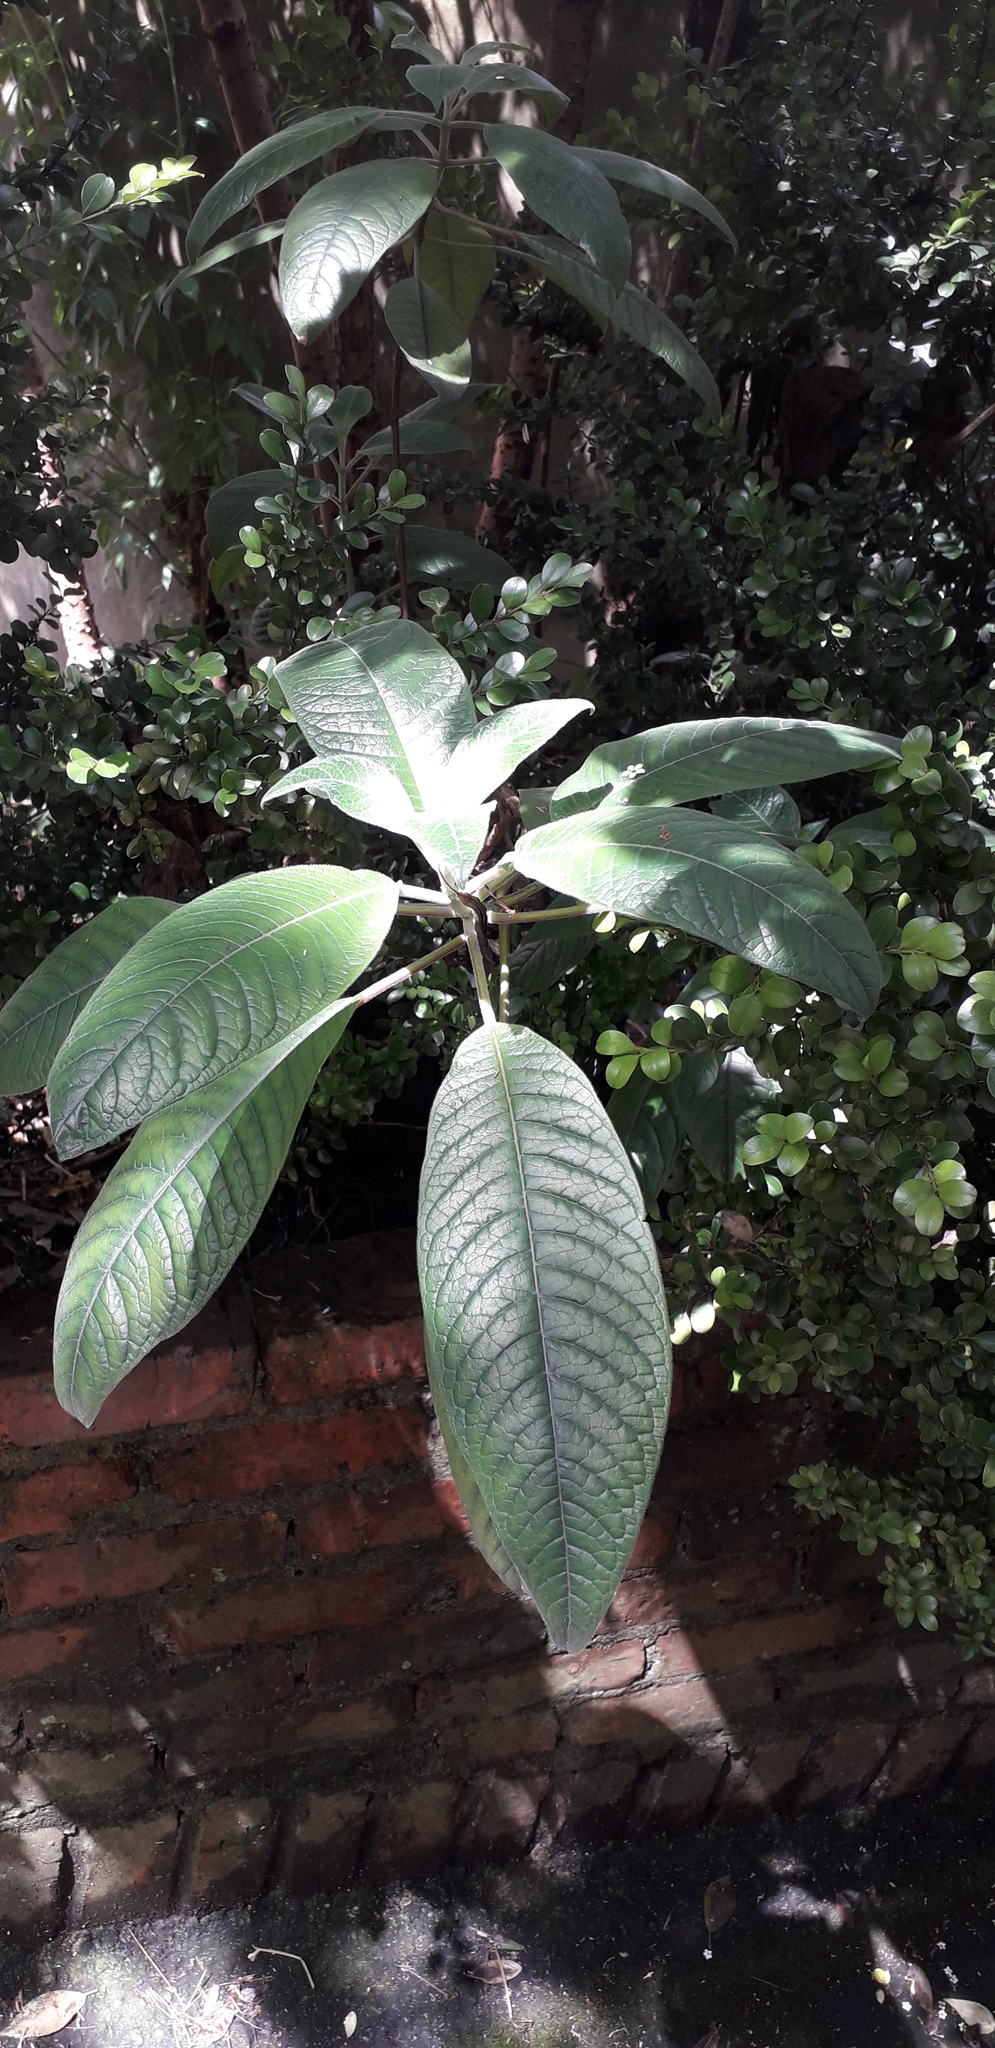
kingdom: Plantae
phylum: Tracheophyta
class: Magnoliopsida
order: Myrtales
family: Onagraceae
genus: Fuchsia
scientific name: Fuchsia boliviana
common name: Bolivian fuchsia
